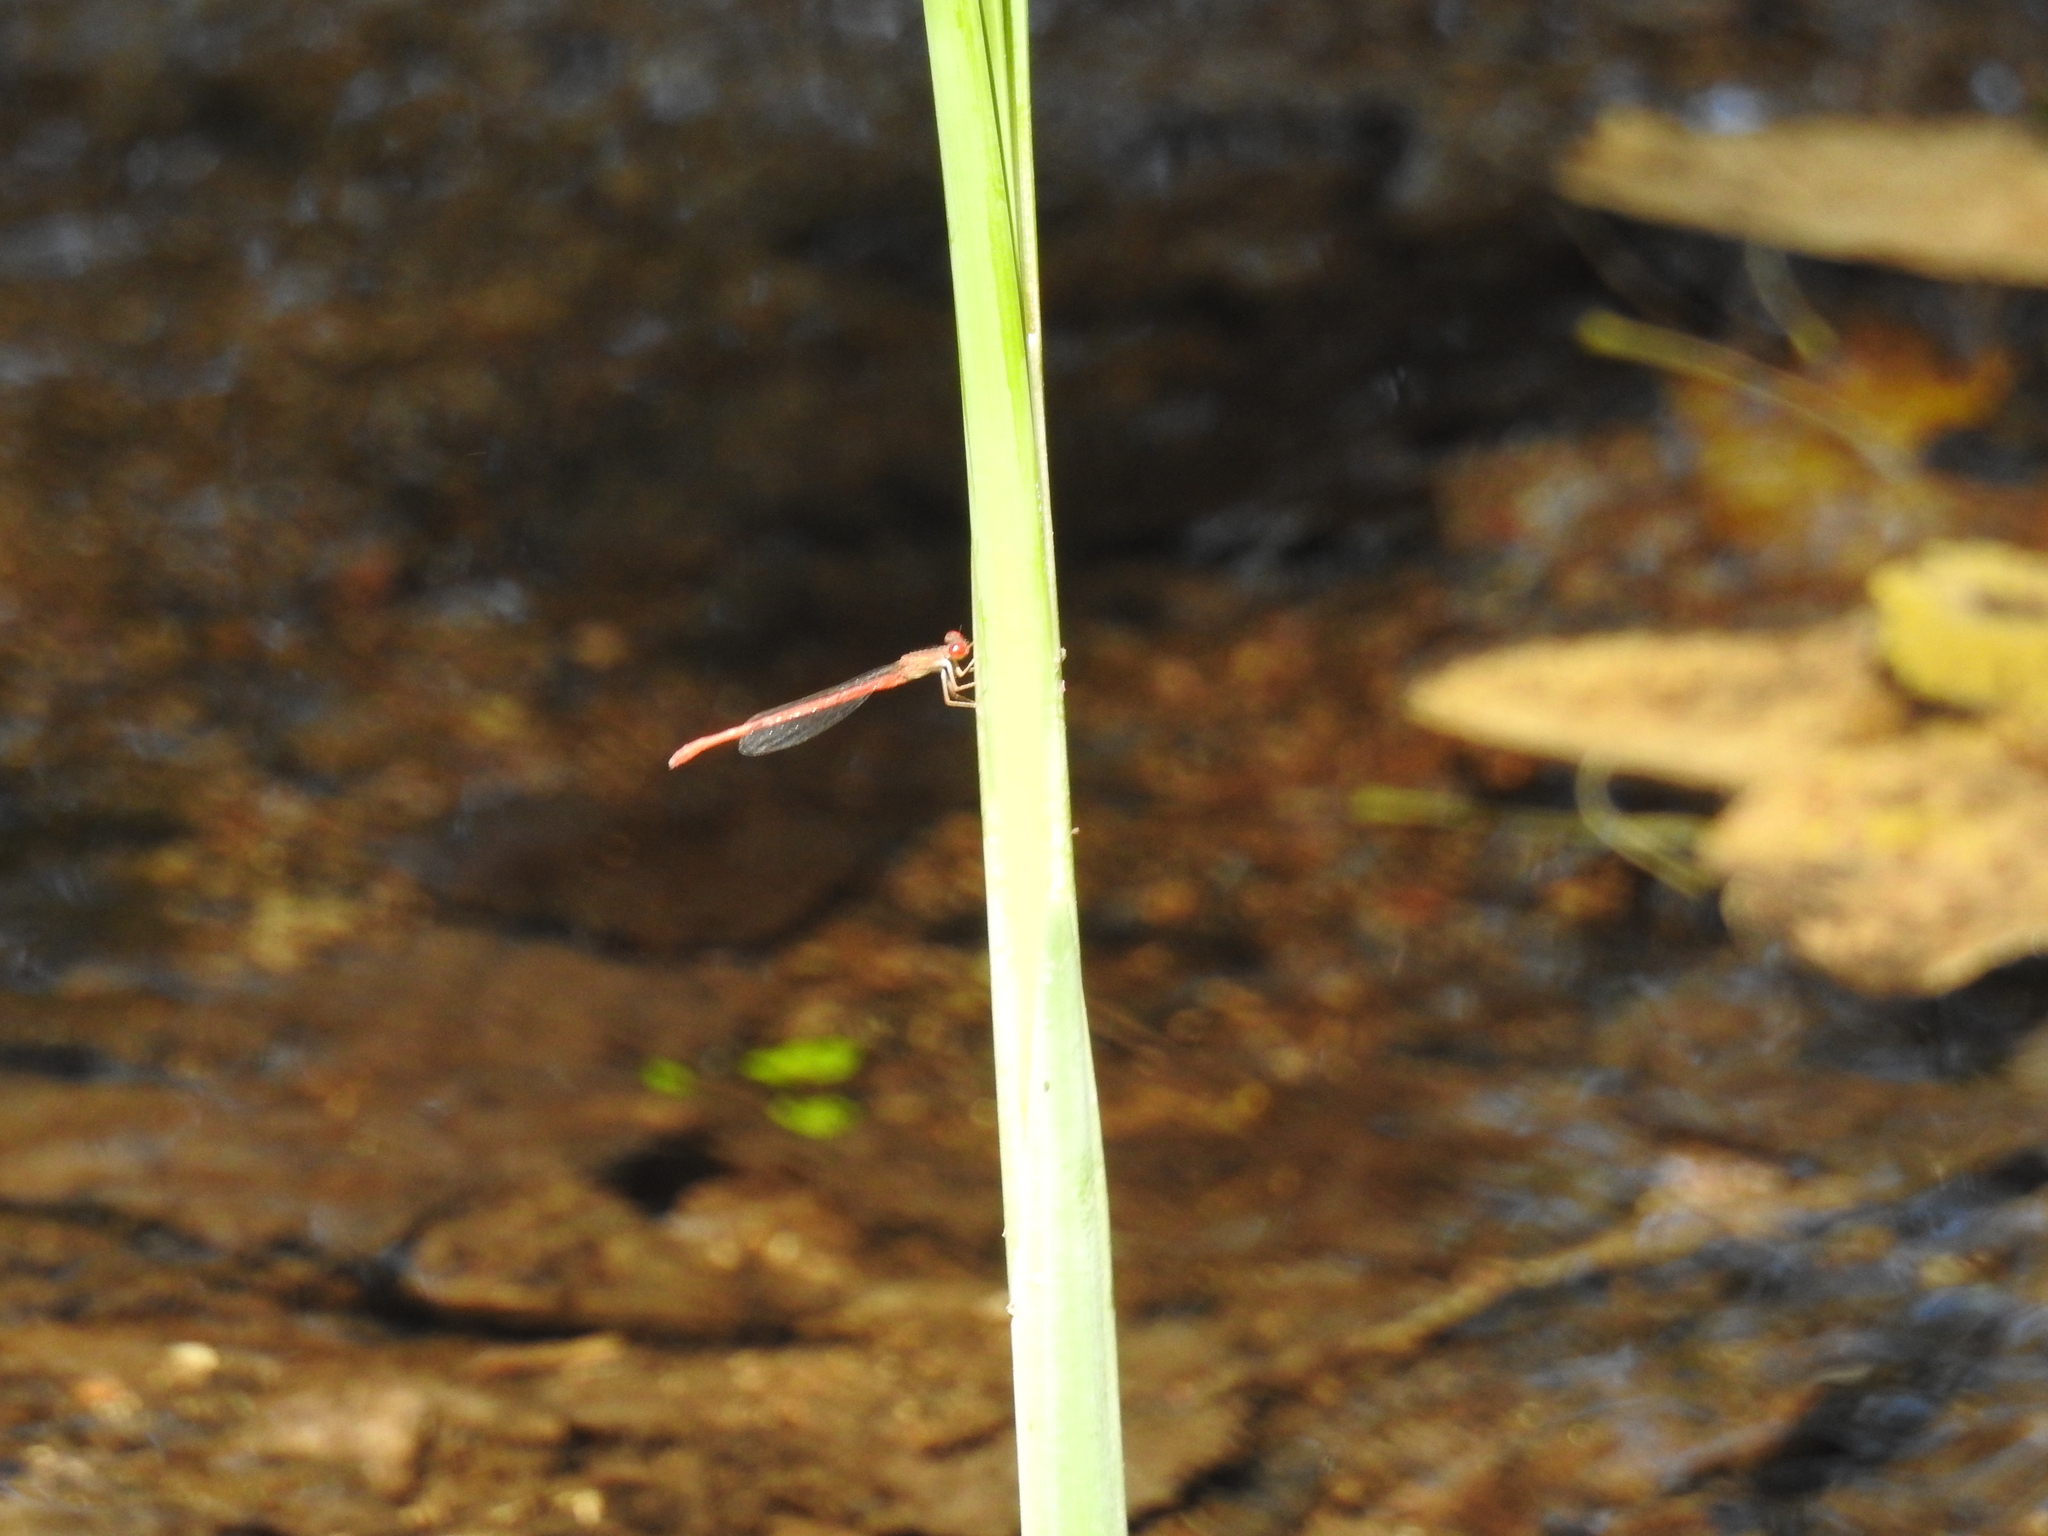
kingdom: Animalia
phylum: Arthropoda
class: Insecta
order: Odonata
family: Coenagrionidae
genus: Telebasis
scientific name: Telebasis salva
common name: Desert firetail
